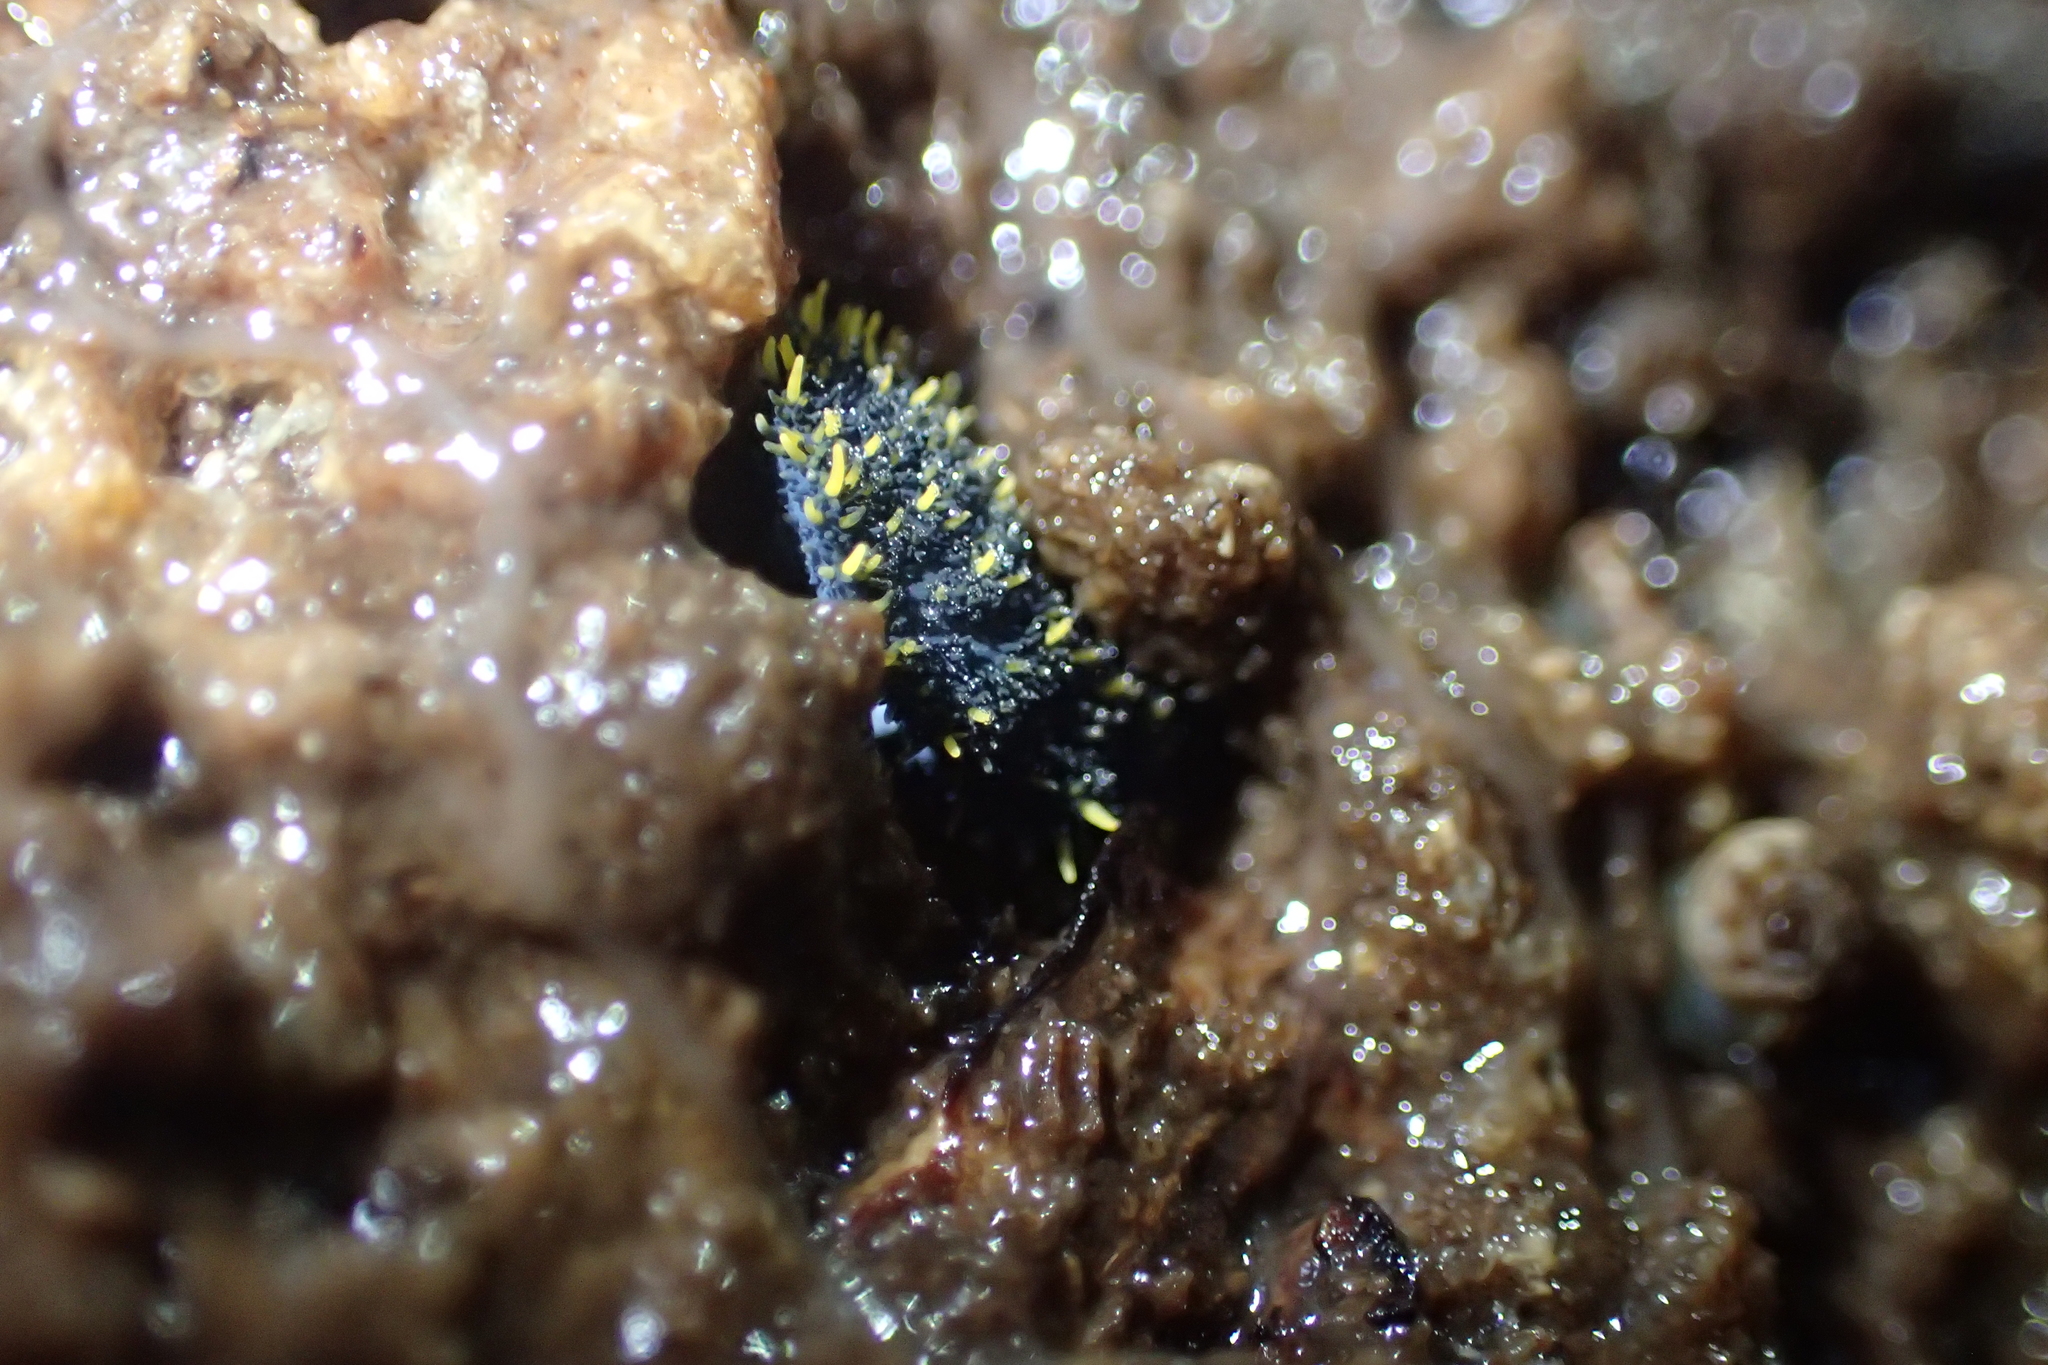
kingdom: Animalia
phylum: Arthropoda
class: Collembola
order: Poduromorpha
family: Neanuridae
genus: Holacanthella
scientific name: Holacanthella duospinosa
